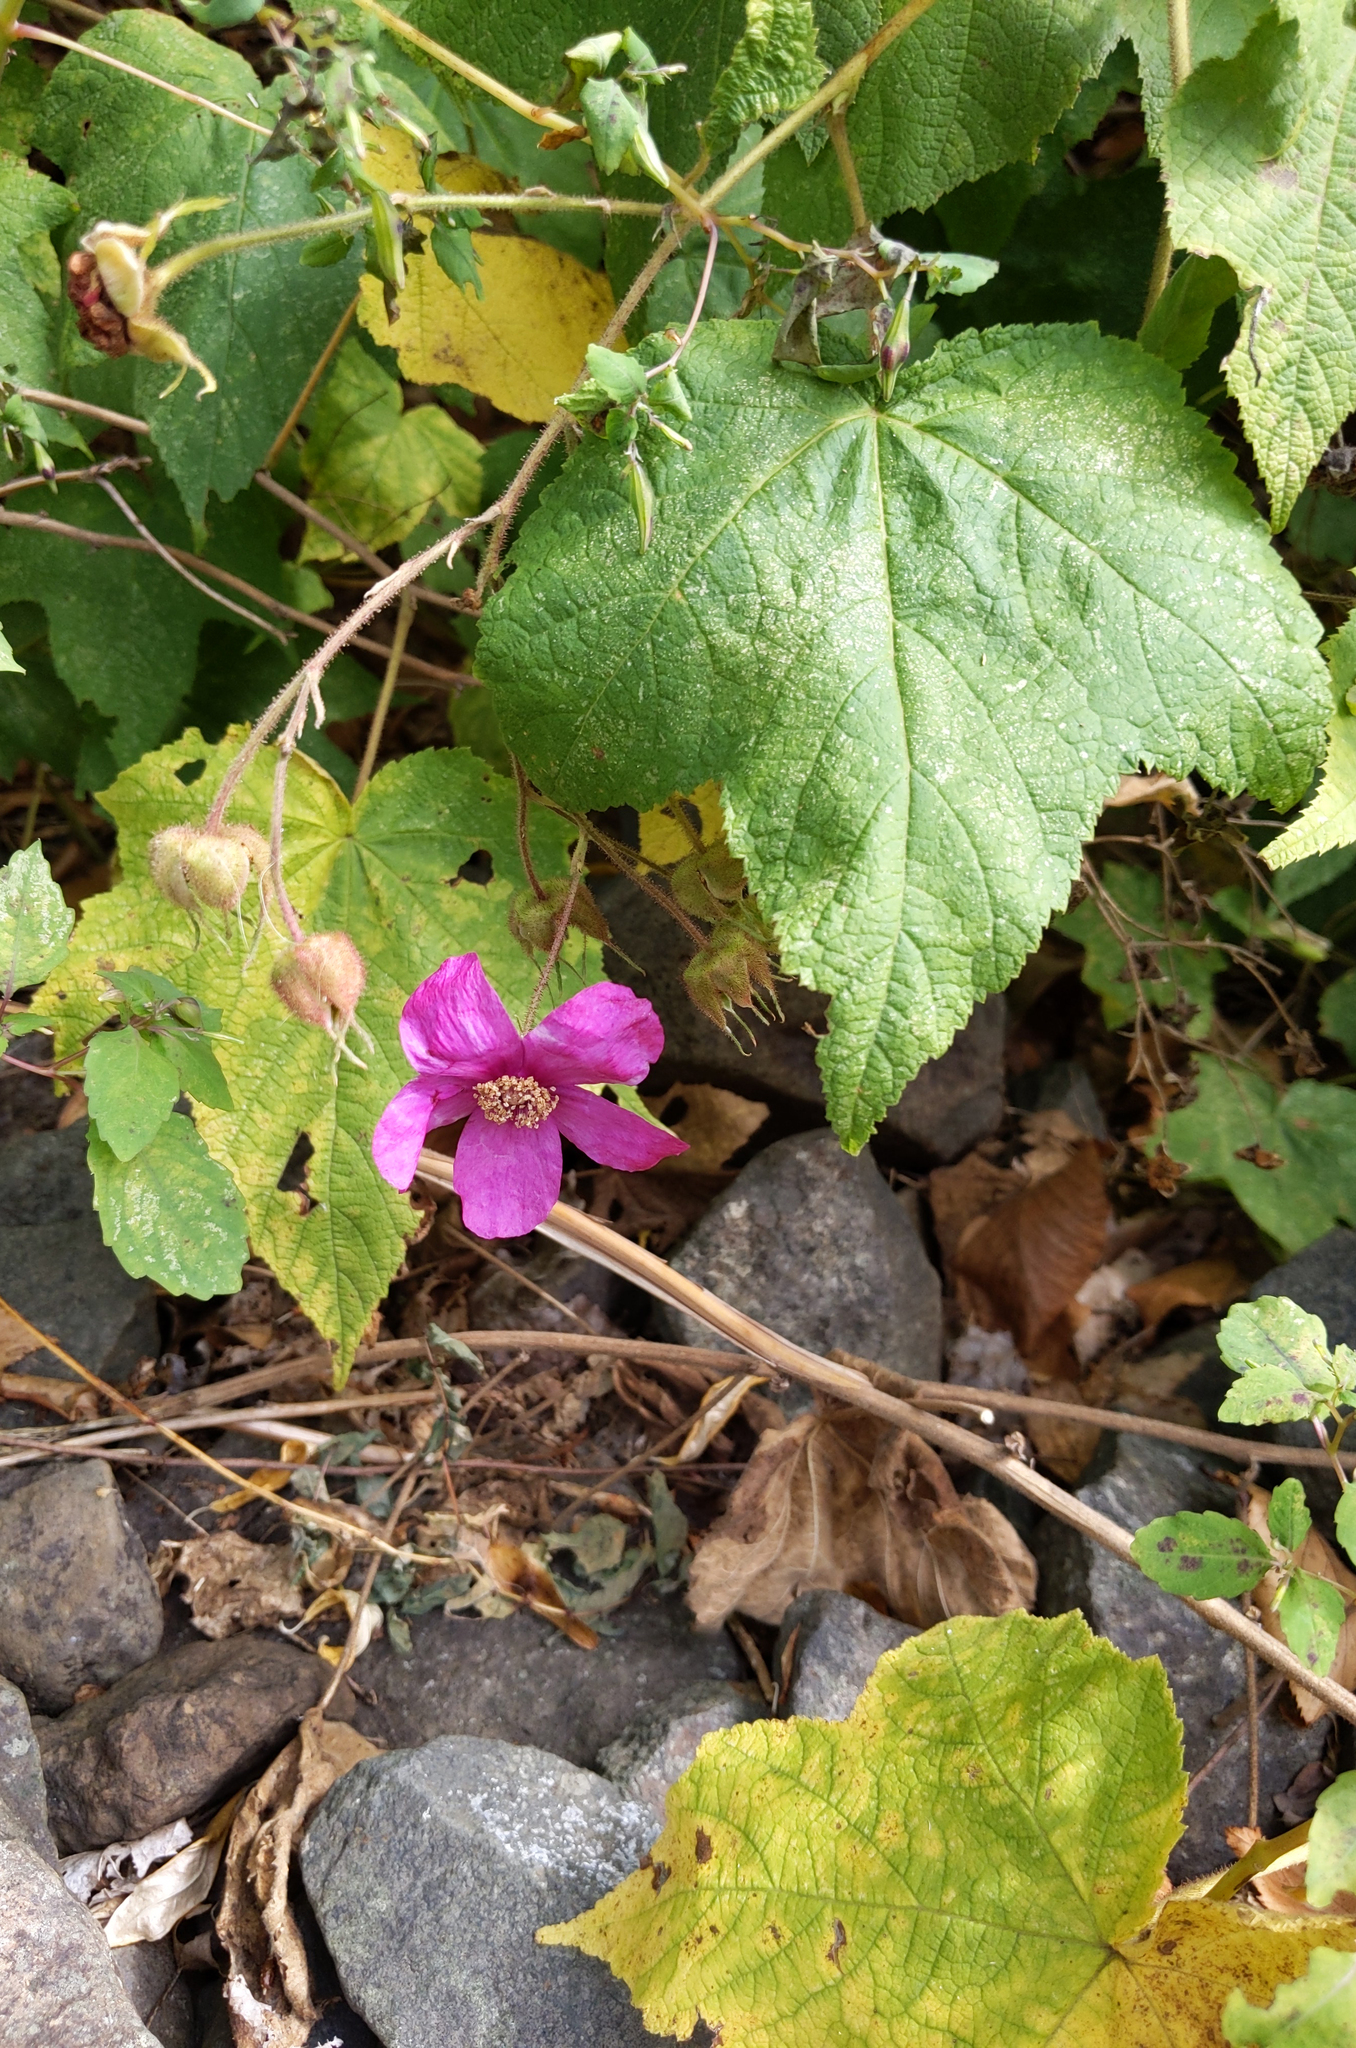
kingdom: Plantae
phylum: Tracheophyta
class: Magnoliopsida
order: Rosales
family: Rosaceae
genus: Rubus
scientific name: Rubus odoratus
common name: Purple-flowered raspberry
